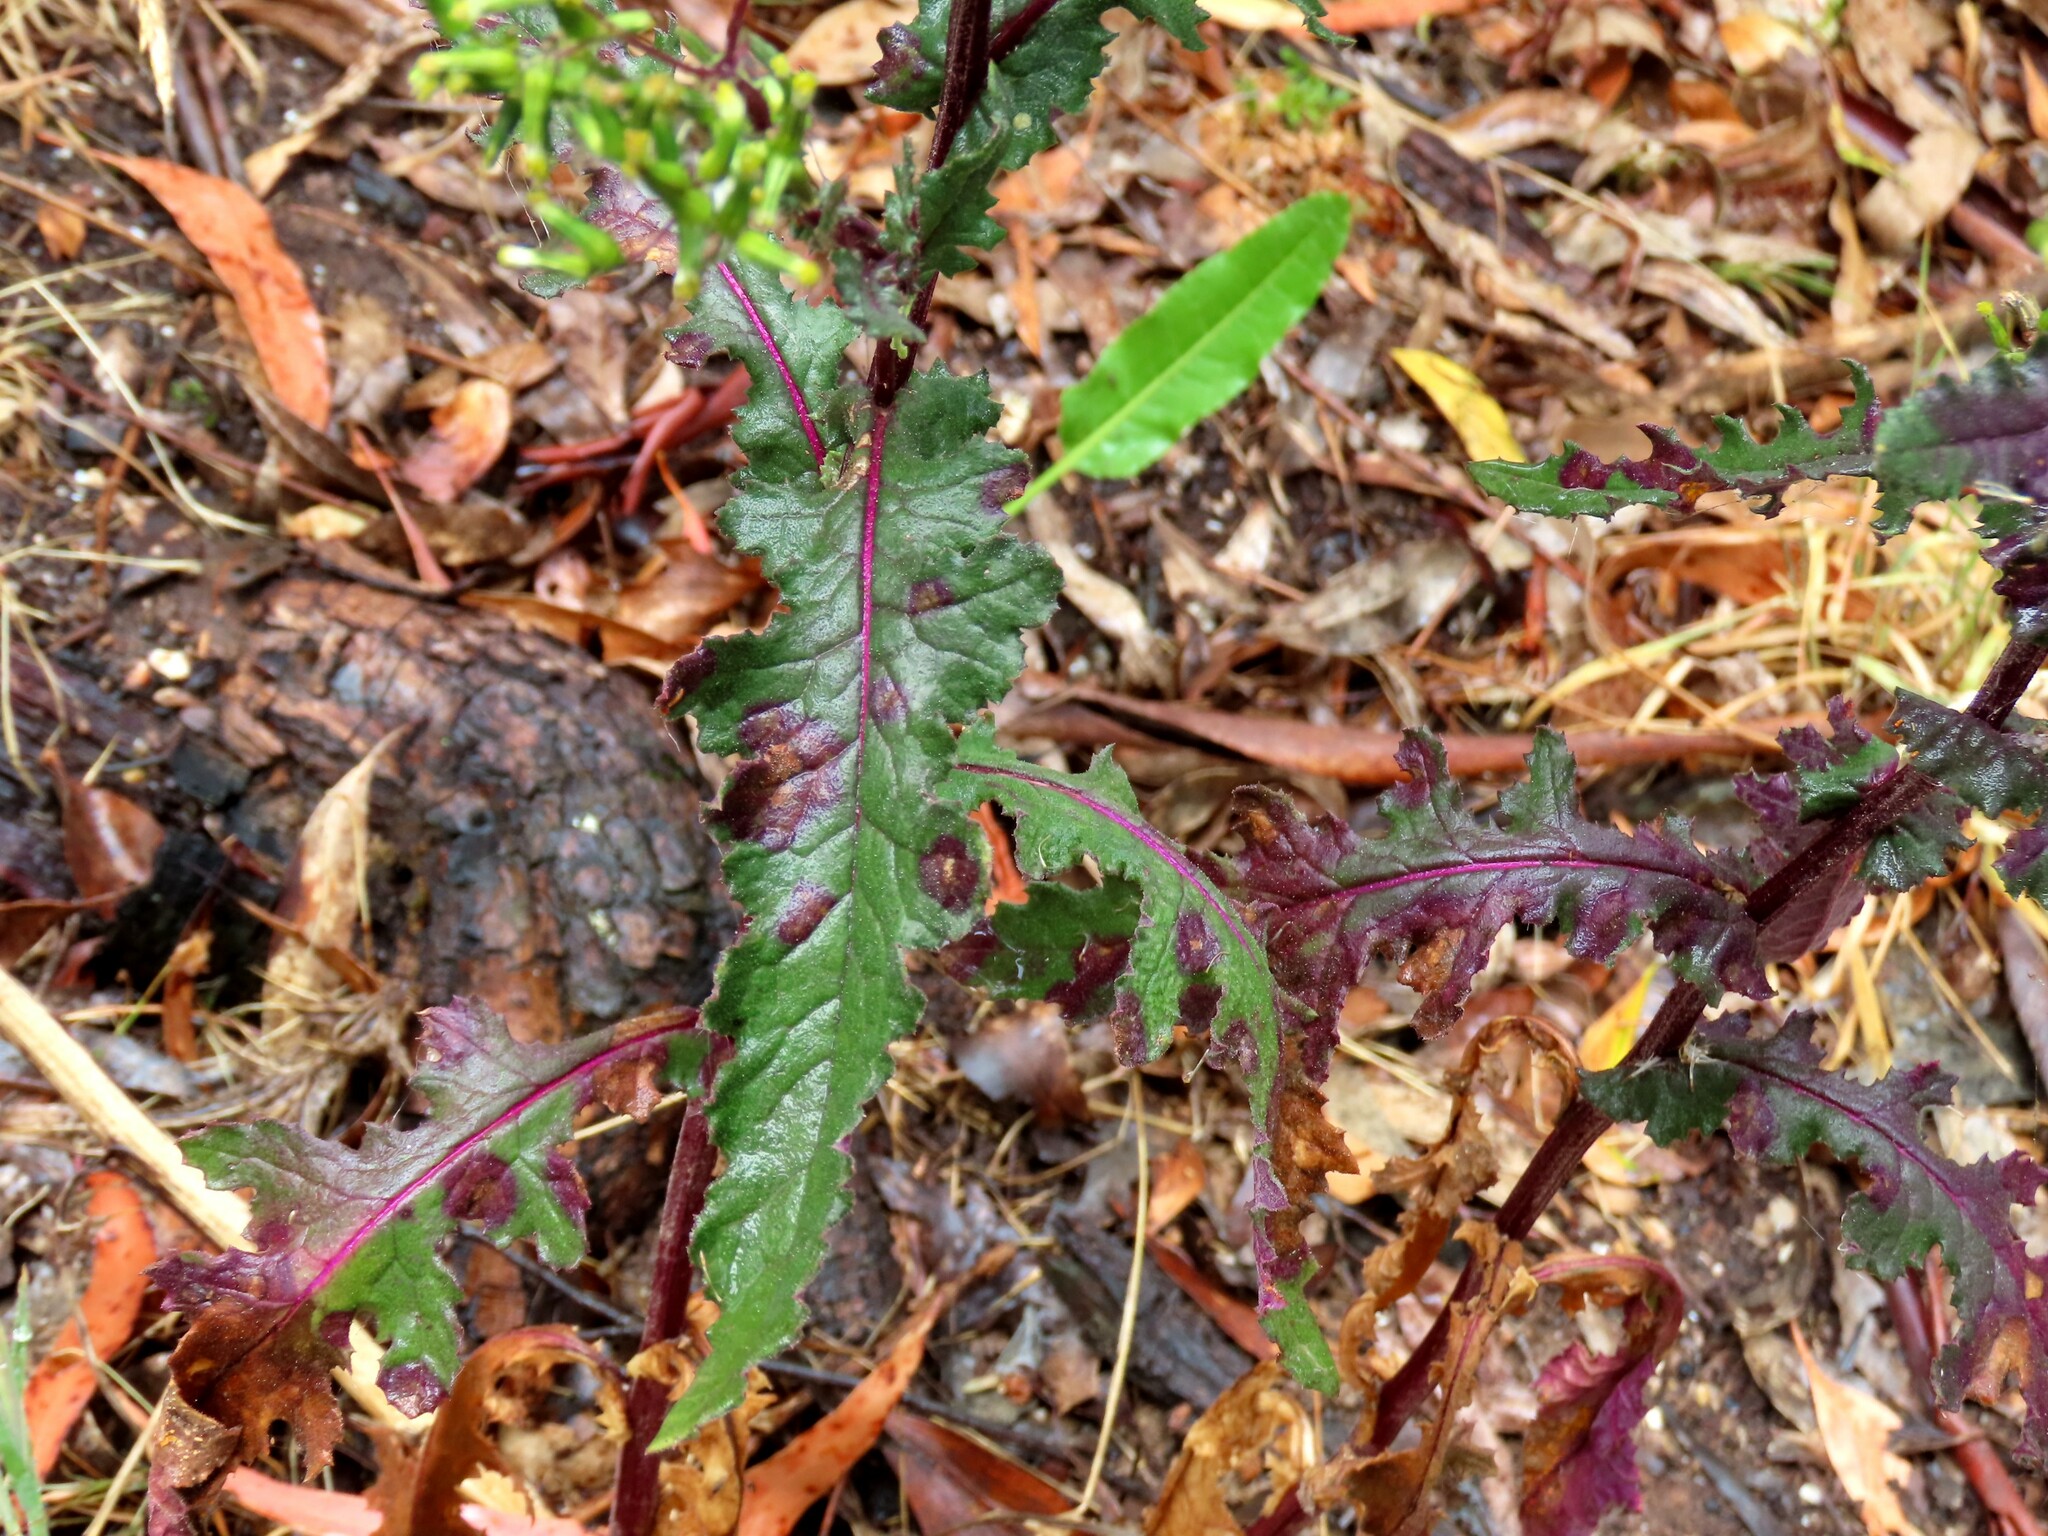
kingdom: Plantae
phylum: Tracheophyta
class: Magnoliopsida
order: Asterales
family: Asteraceae
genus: Senecio
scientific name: Senecio picridioides
